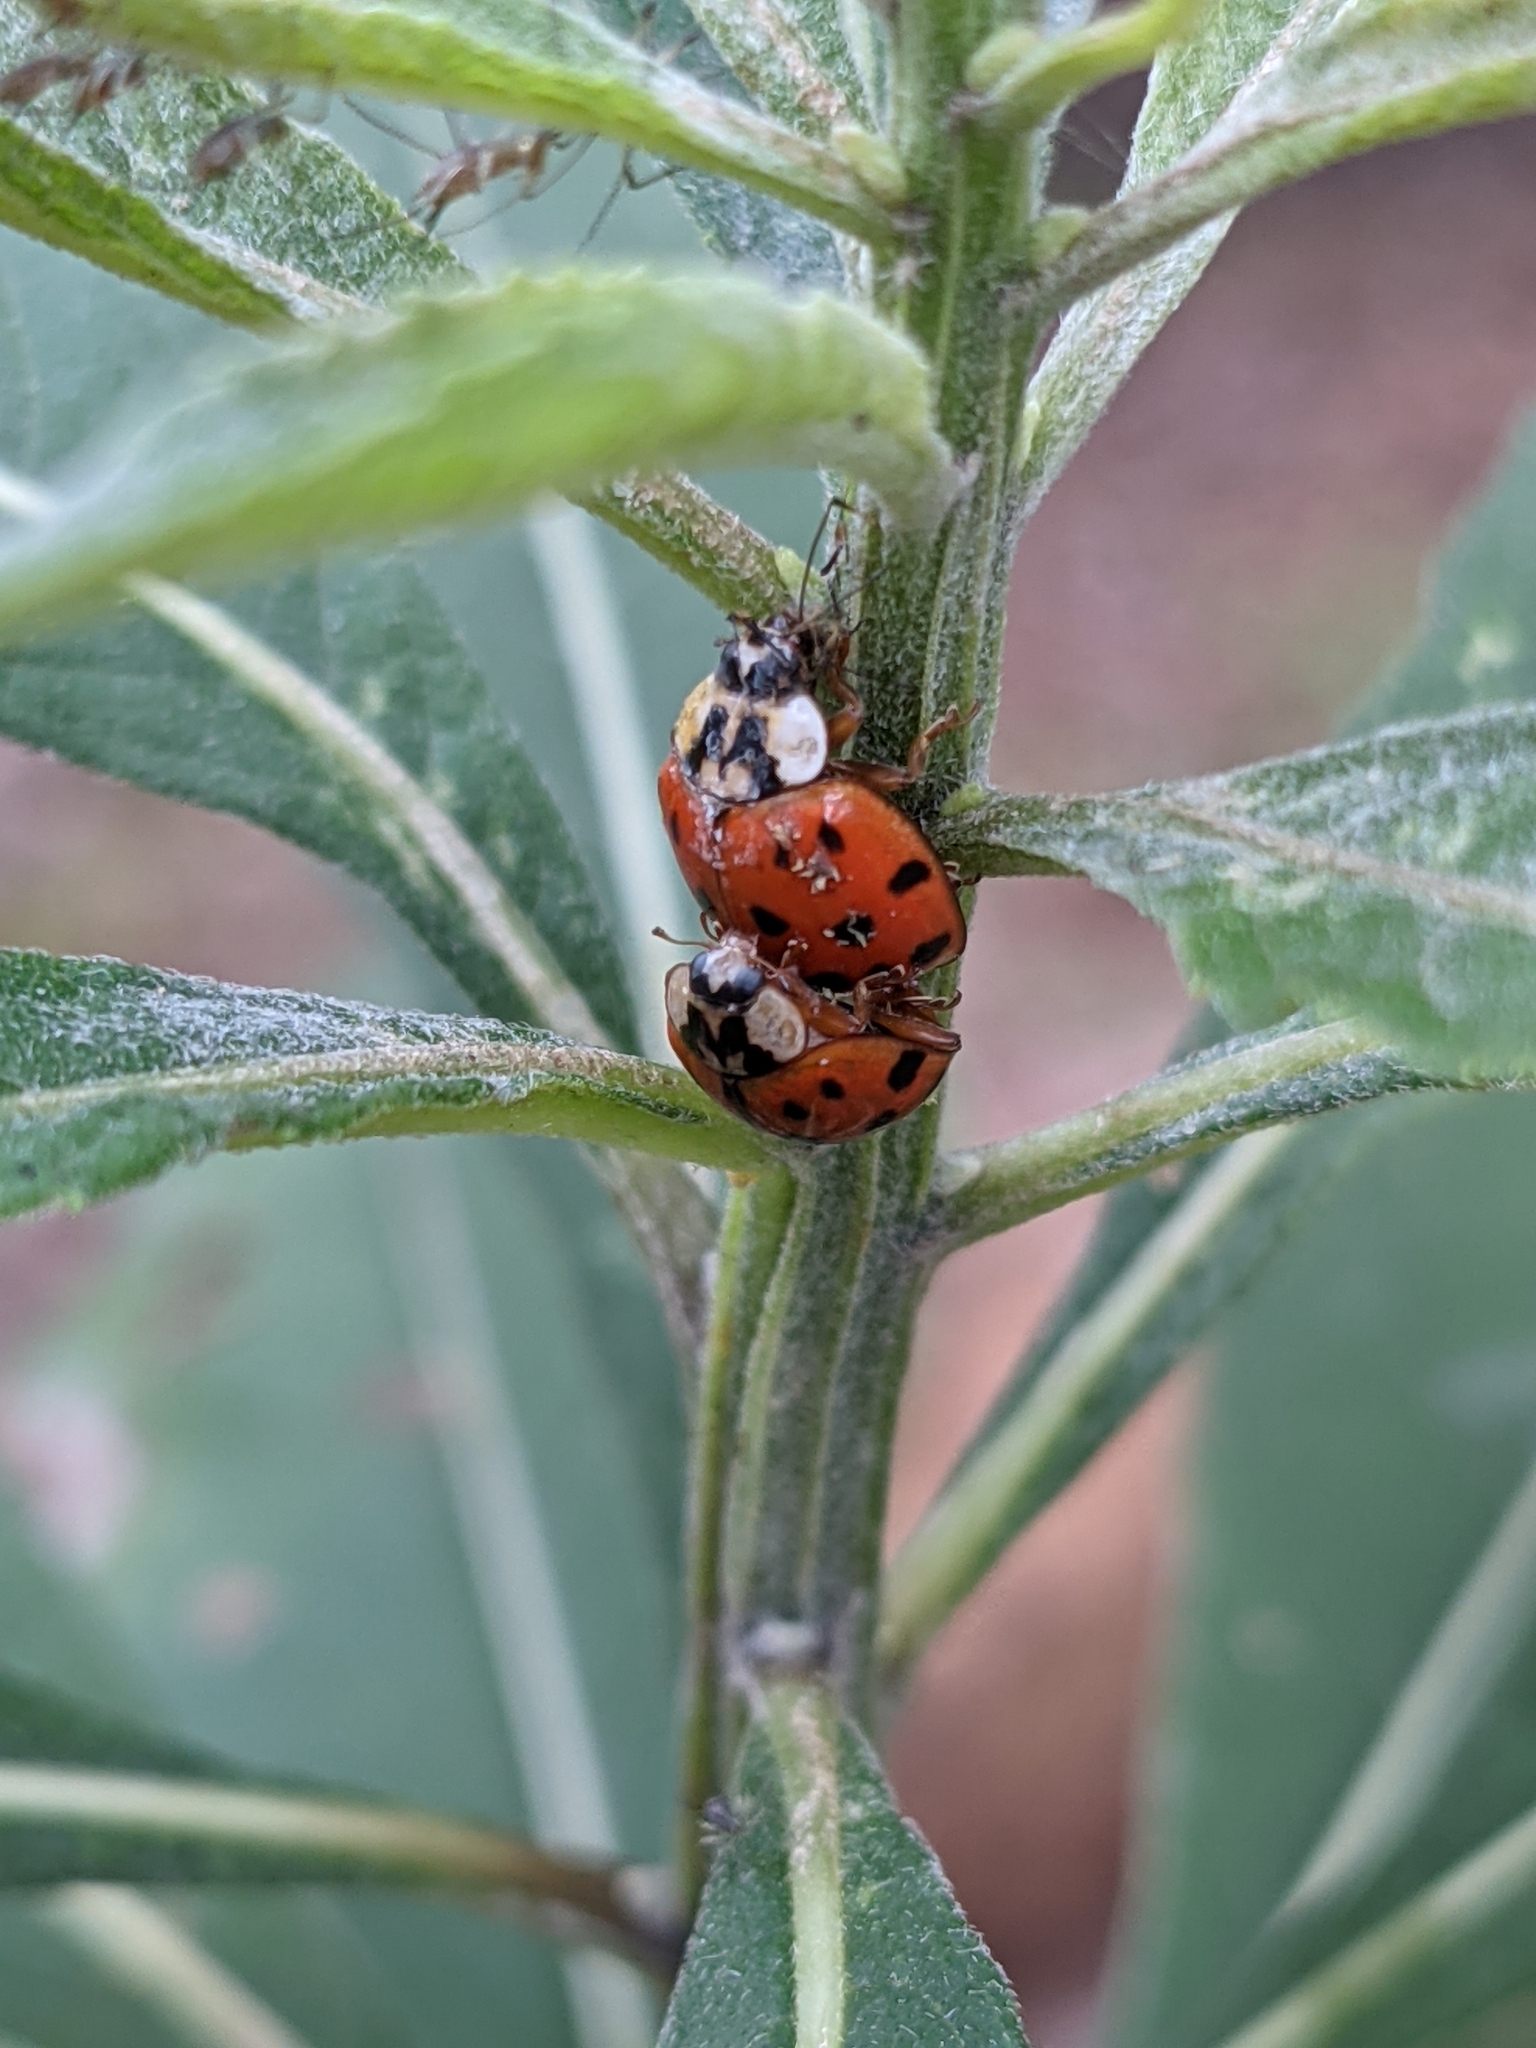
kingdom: Animalia
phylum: Arthropoda
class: Insecta
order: Coleoptera
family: Coccinellidae
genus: Harmonia
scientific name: Harmonia axyridis
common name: Harlequin ladybird
